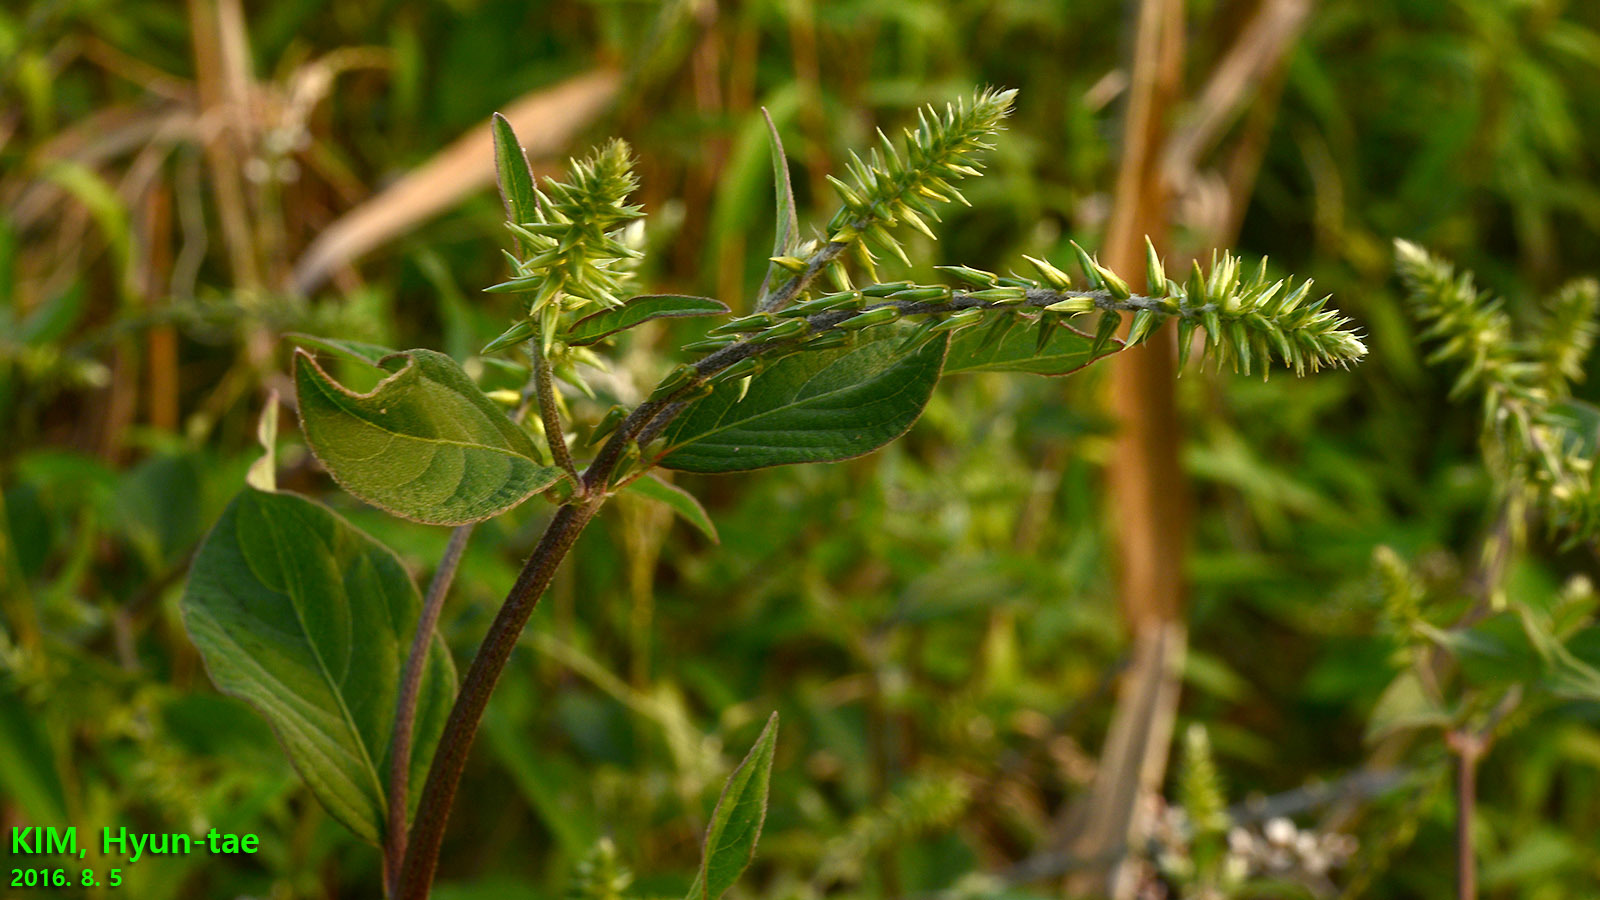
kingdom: Plantae
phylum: Tracheophyta
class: Magnoliopsida
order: Caryophyllales
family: Amaranthaceae
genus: Achyranthes
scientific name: Achyranthes bidentata
